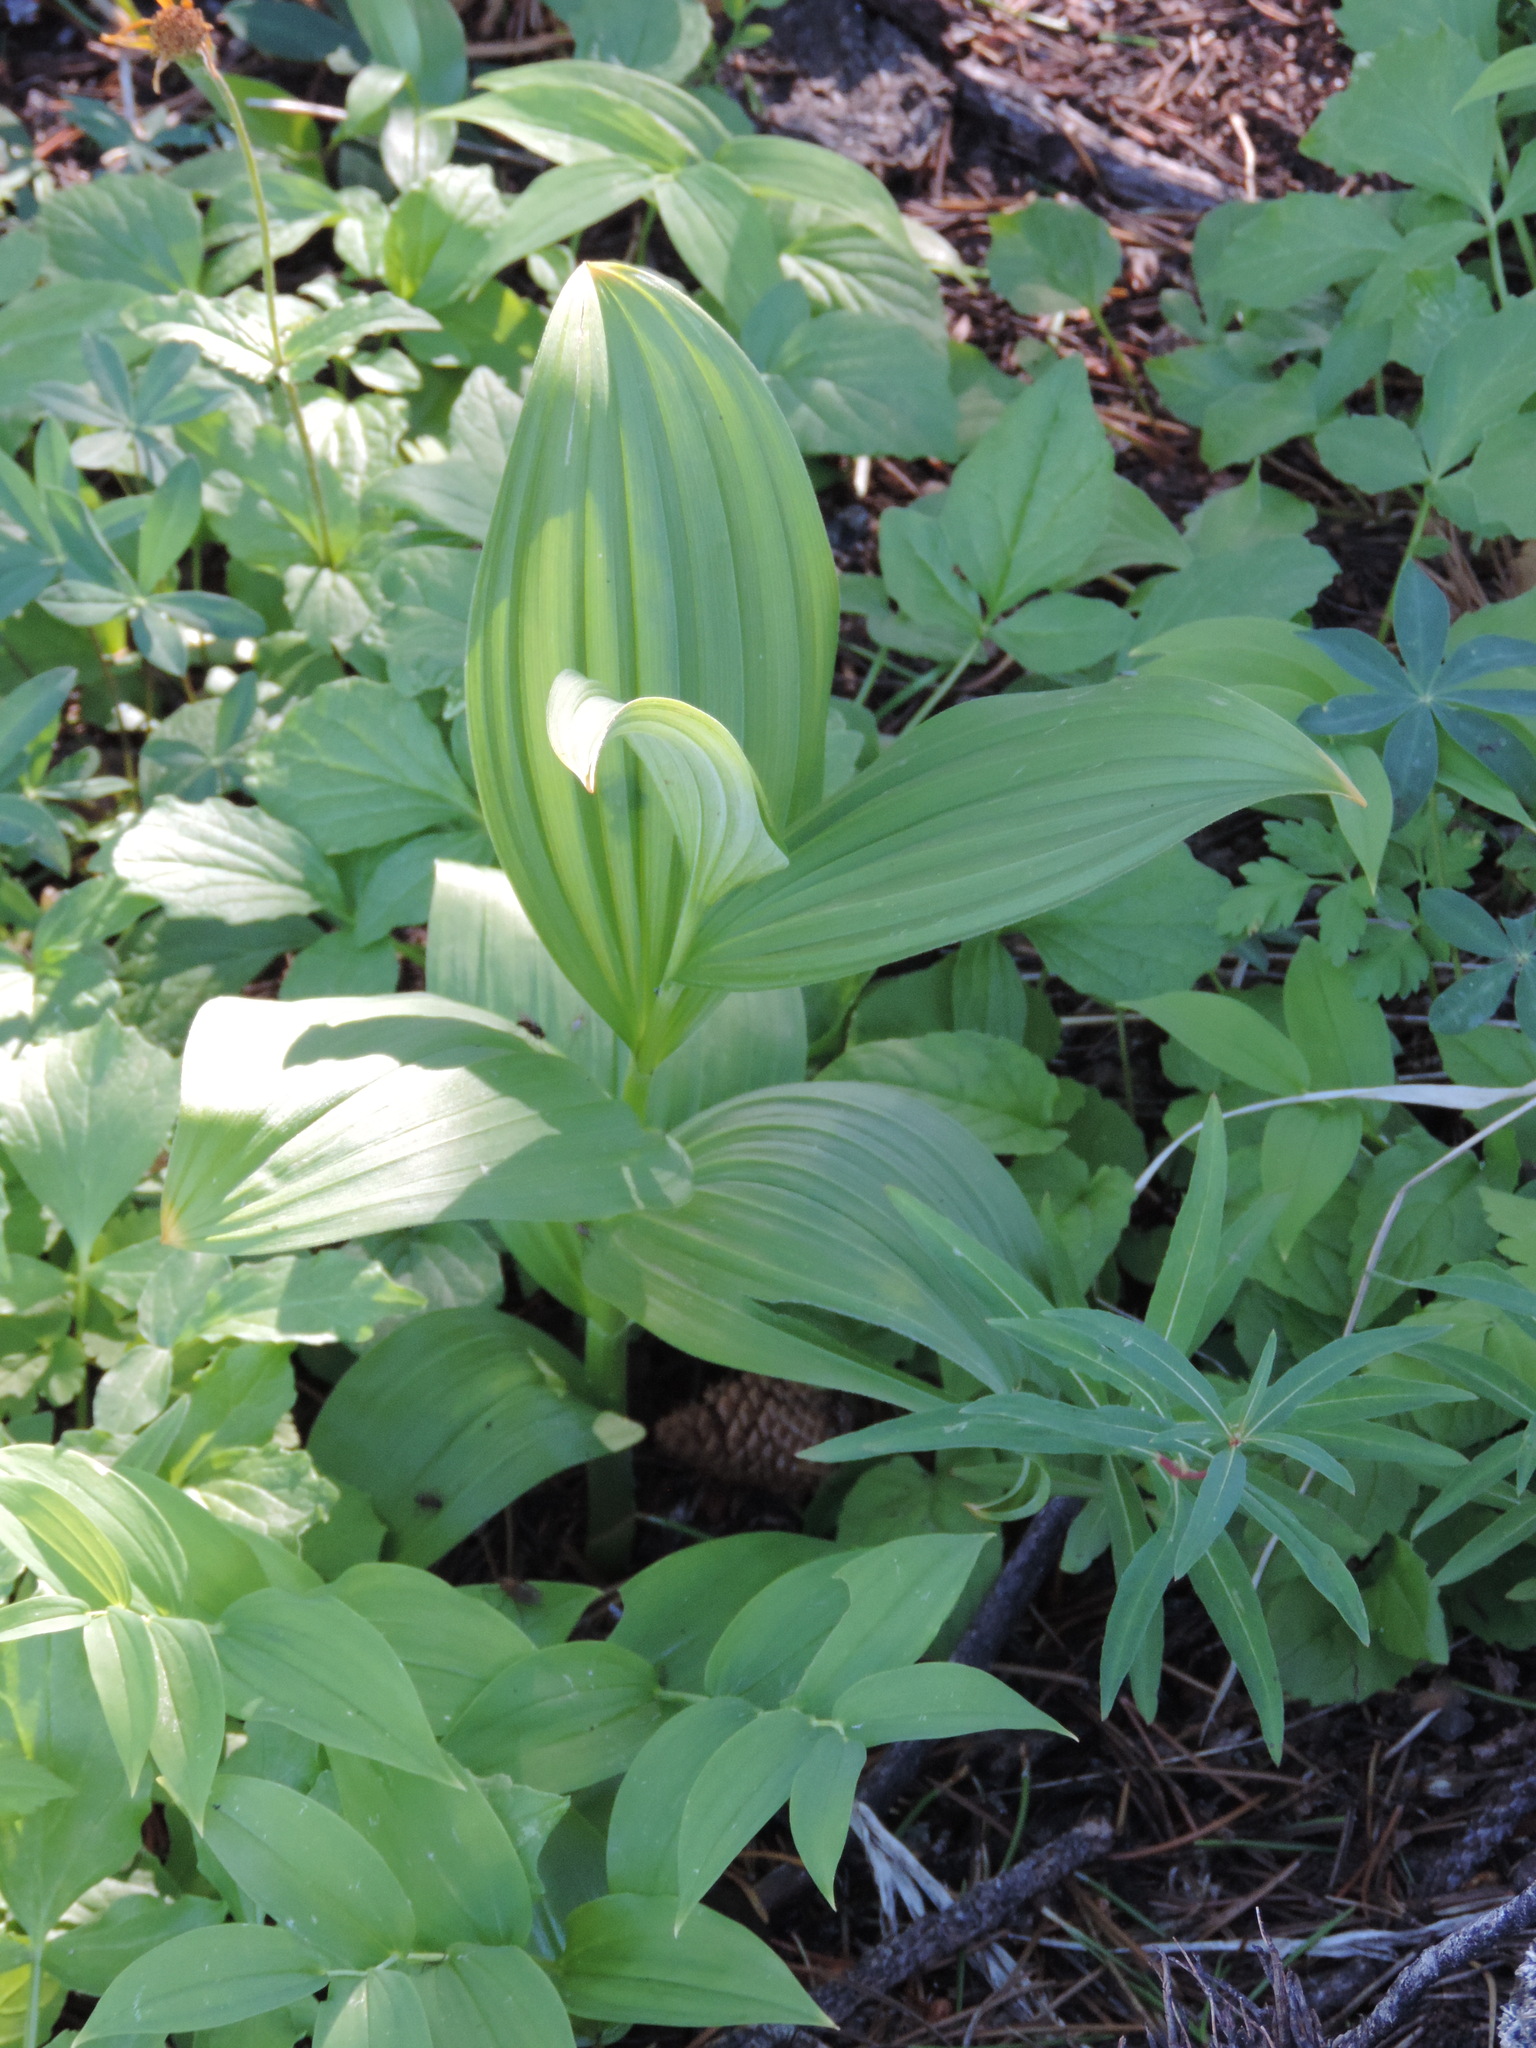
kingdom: Plantae
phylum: Tracheophyta
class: Liliopsida
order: Liliales
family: Melanthiaceae
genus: Veratrum
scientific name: Veratrum viride
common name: American false hellebore
